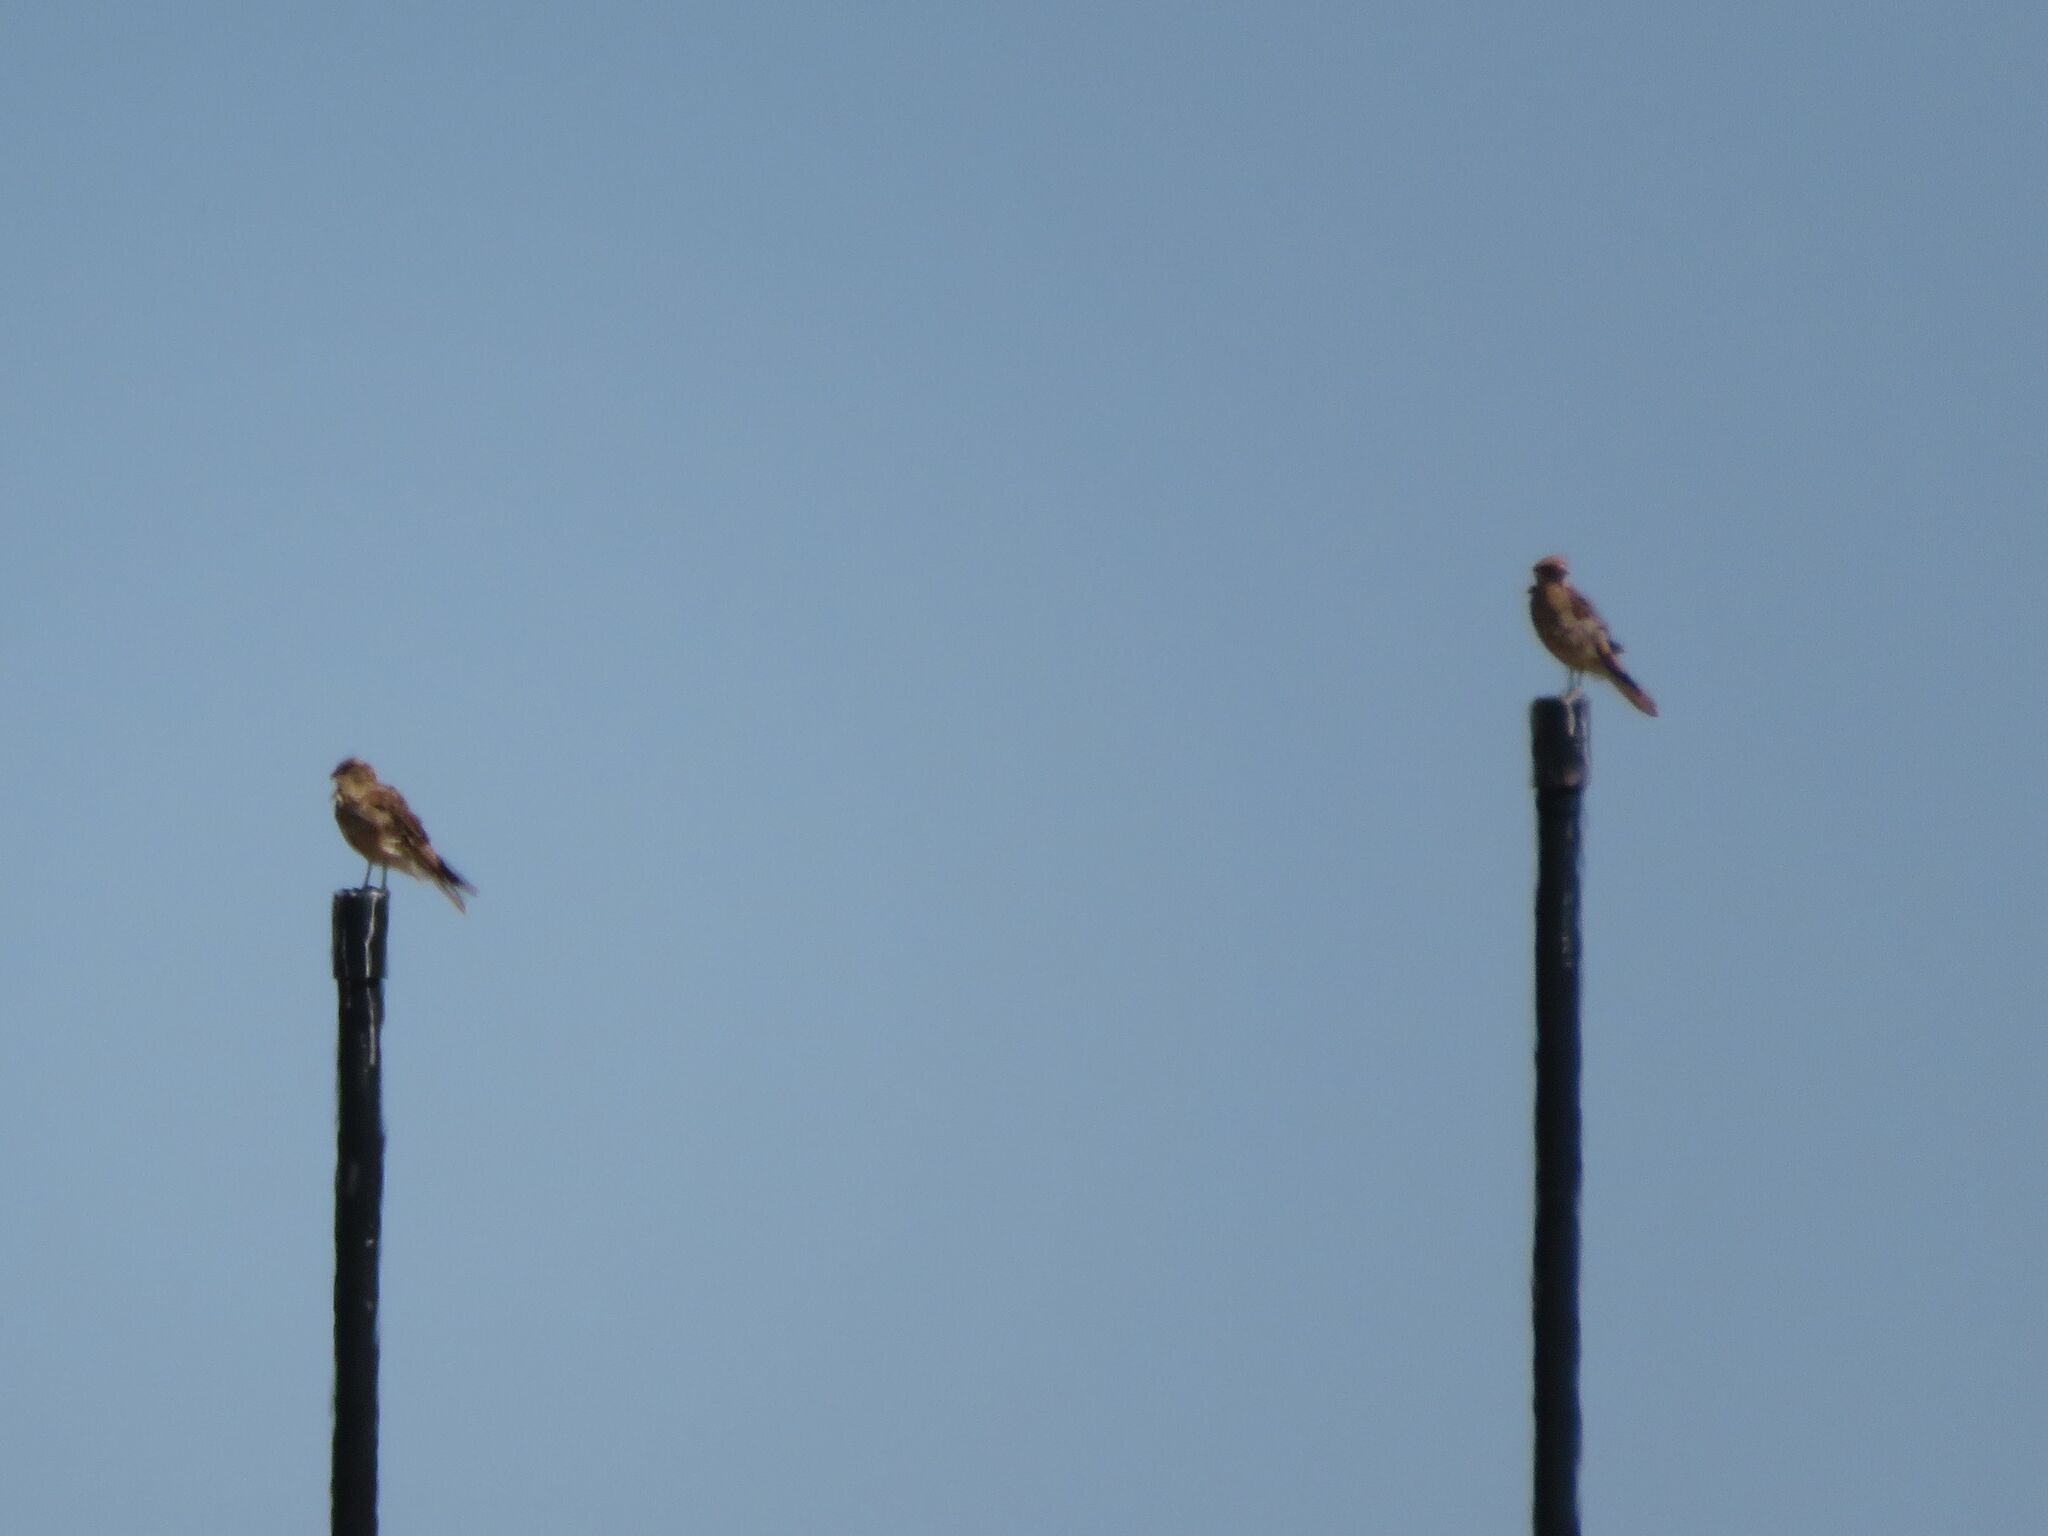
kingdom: Animalia
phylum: Chordata
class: Aves
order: Falconiformes
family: Falconidae
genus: Daptrius
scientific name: Daptrius
